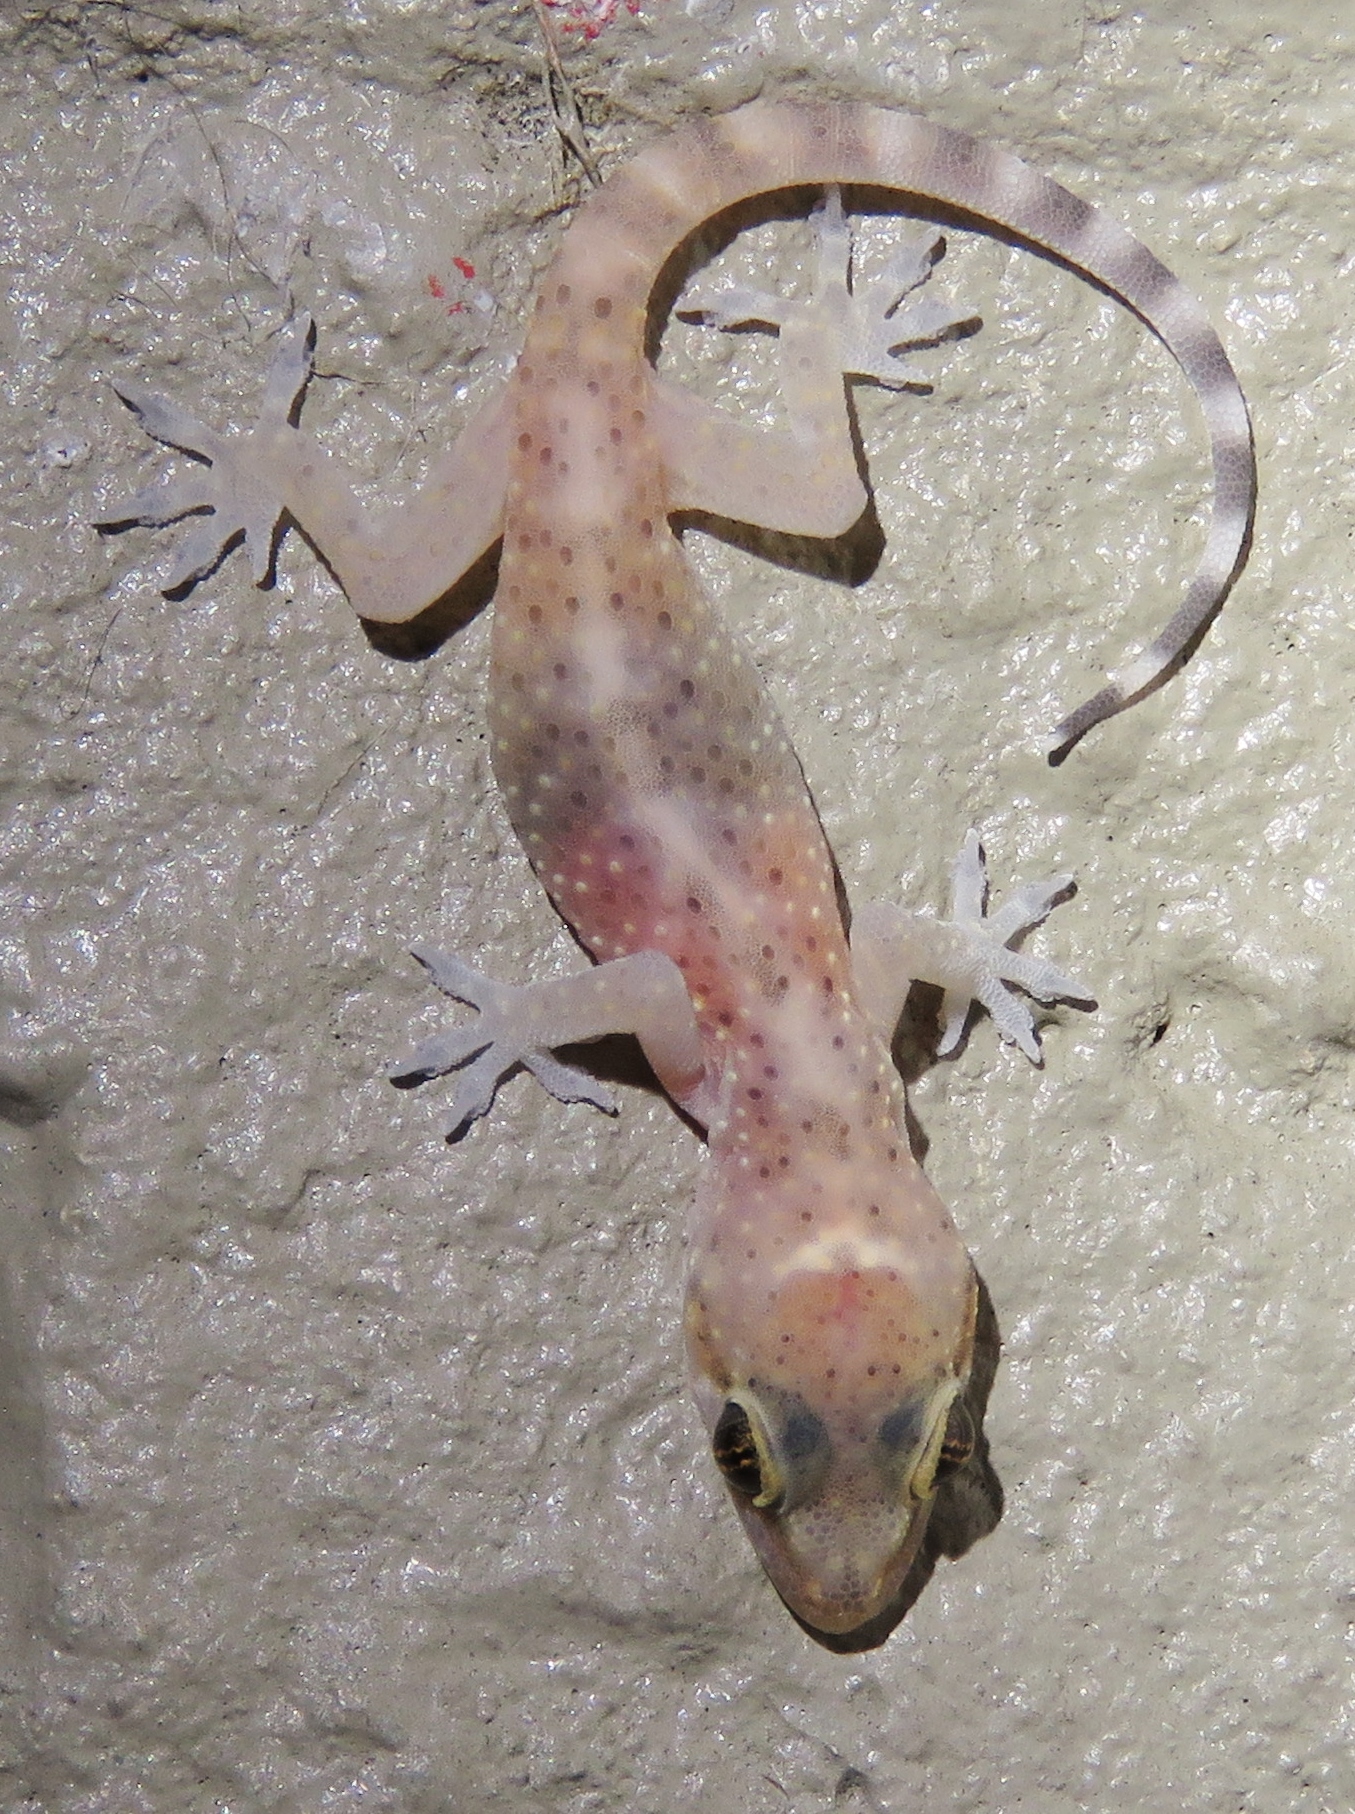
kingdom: Animalia
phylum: Chordata
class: Squamata
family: Gekkonidae
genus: Hemidactylus
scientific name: Hemidactylus turcicus
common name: Turkish gecko
